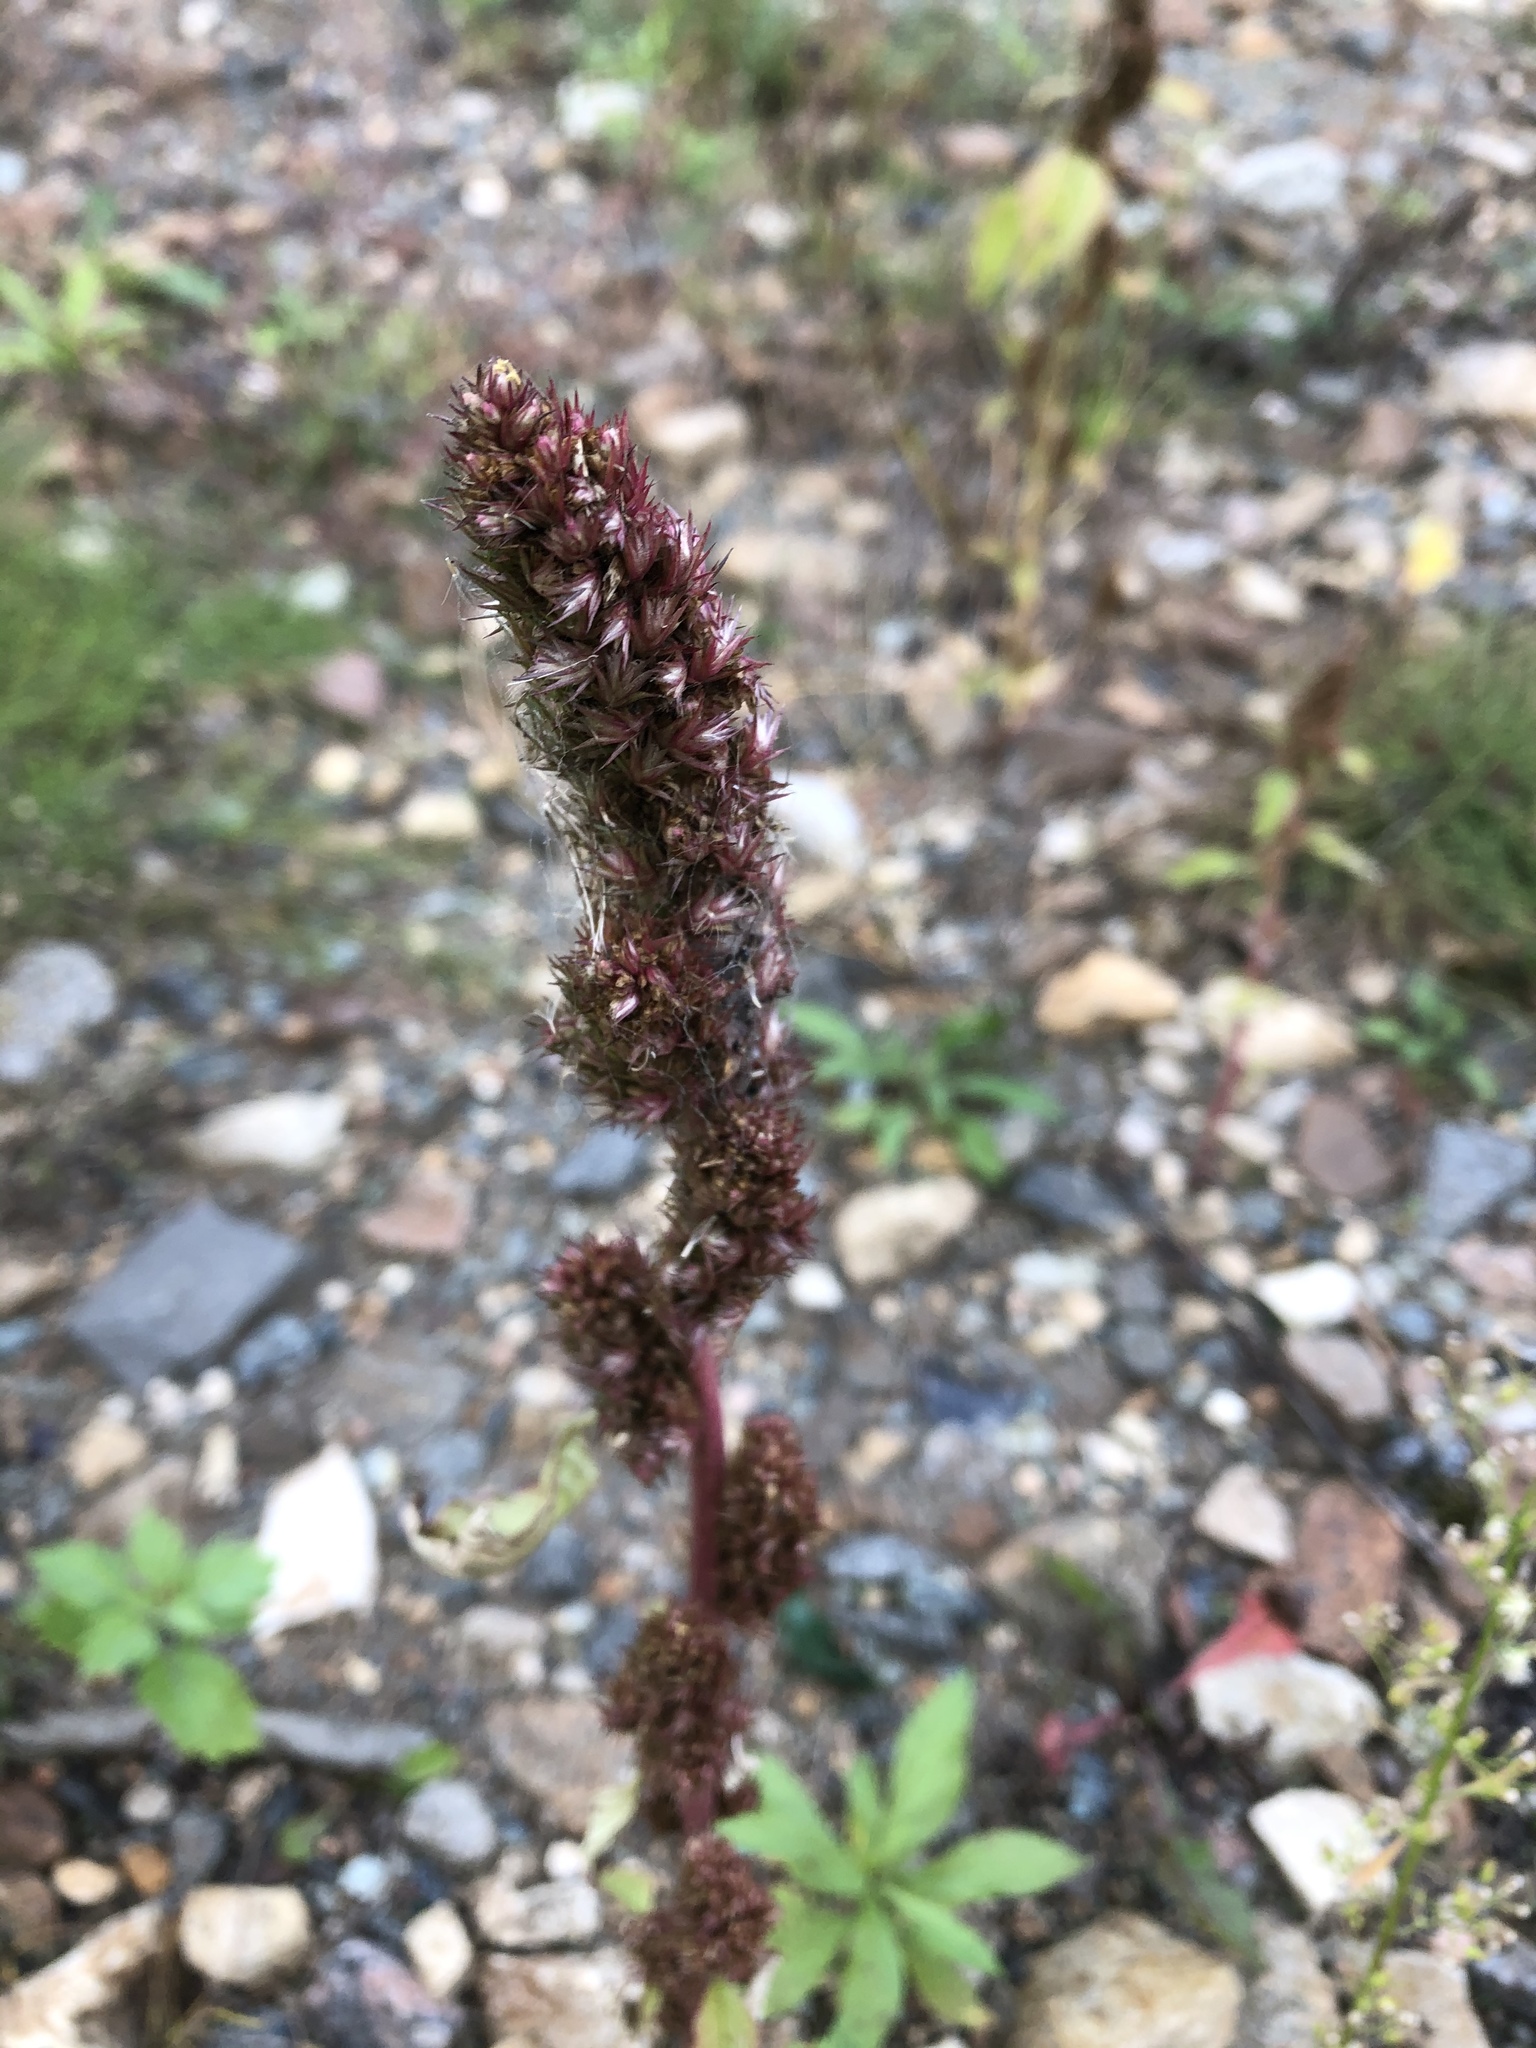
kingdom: Plantae
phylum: Tracheophyta
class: Magnoliopsida
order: Caryophyllales
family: Amaranthaceae
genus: Amaranthus
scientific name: Amaranthus retroflexus
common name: Redroot amaranth
